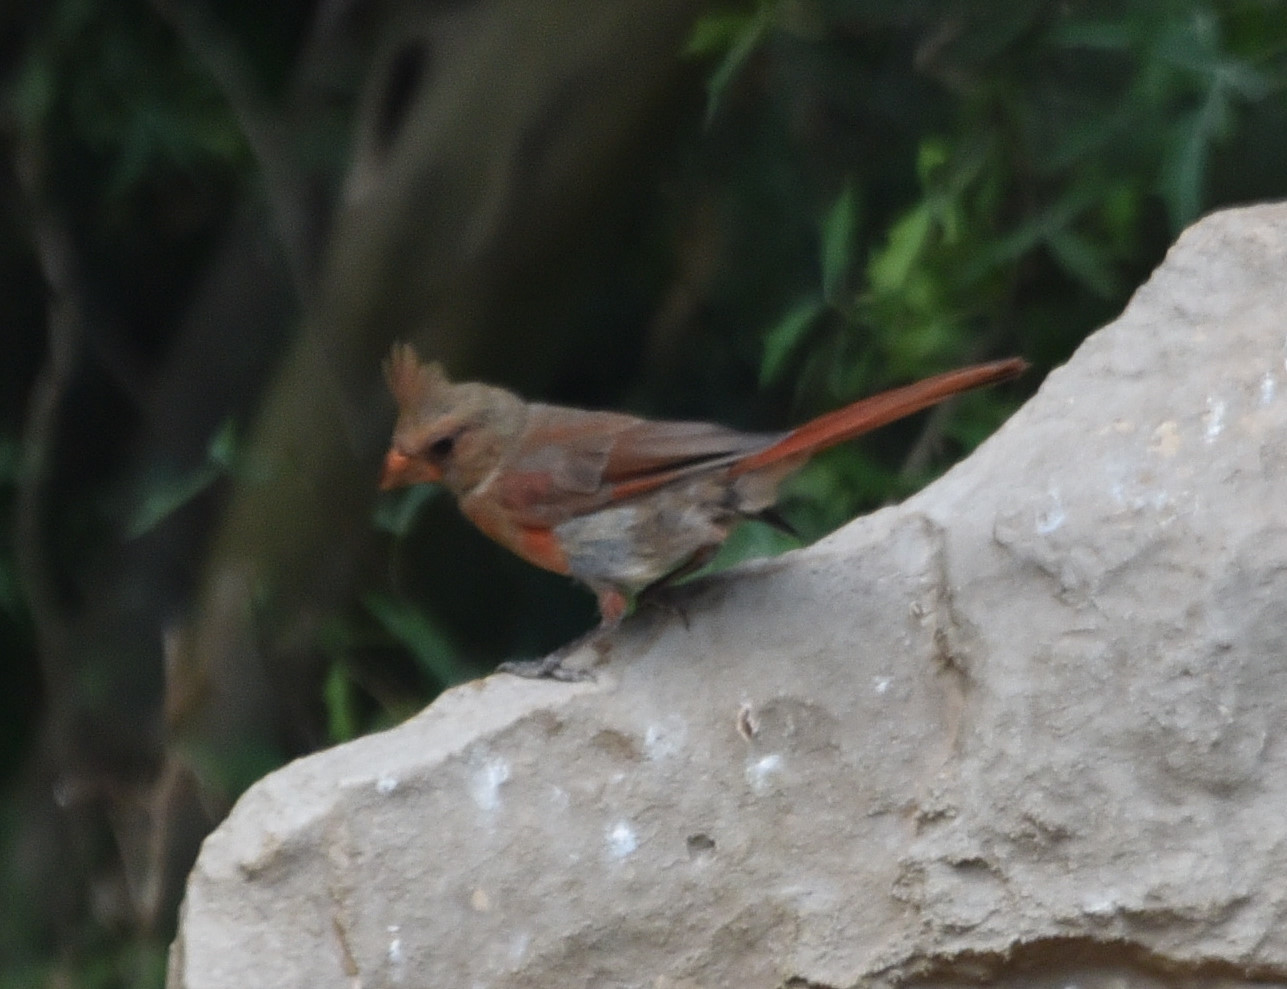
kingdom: Animalia
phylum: Chordata
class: Aves
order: Passeriformes
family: Cardinalidae
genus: Cardinalis
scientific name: Cardinalis cardinalis
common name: Northern cardinal
